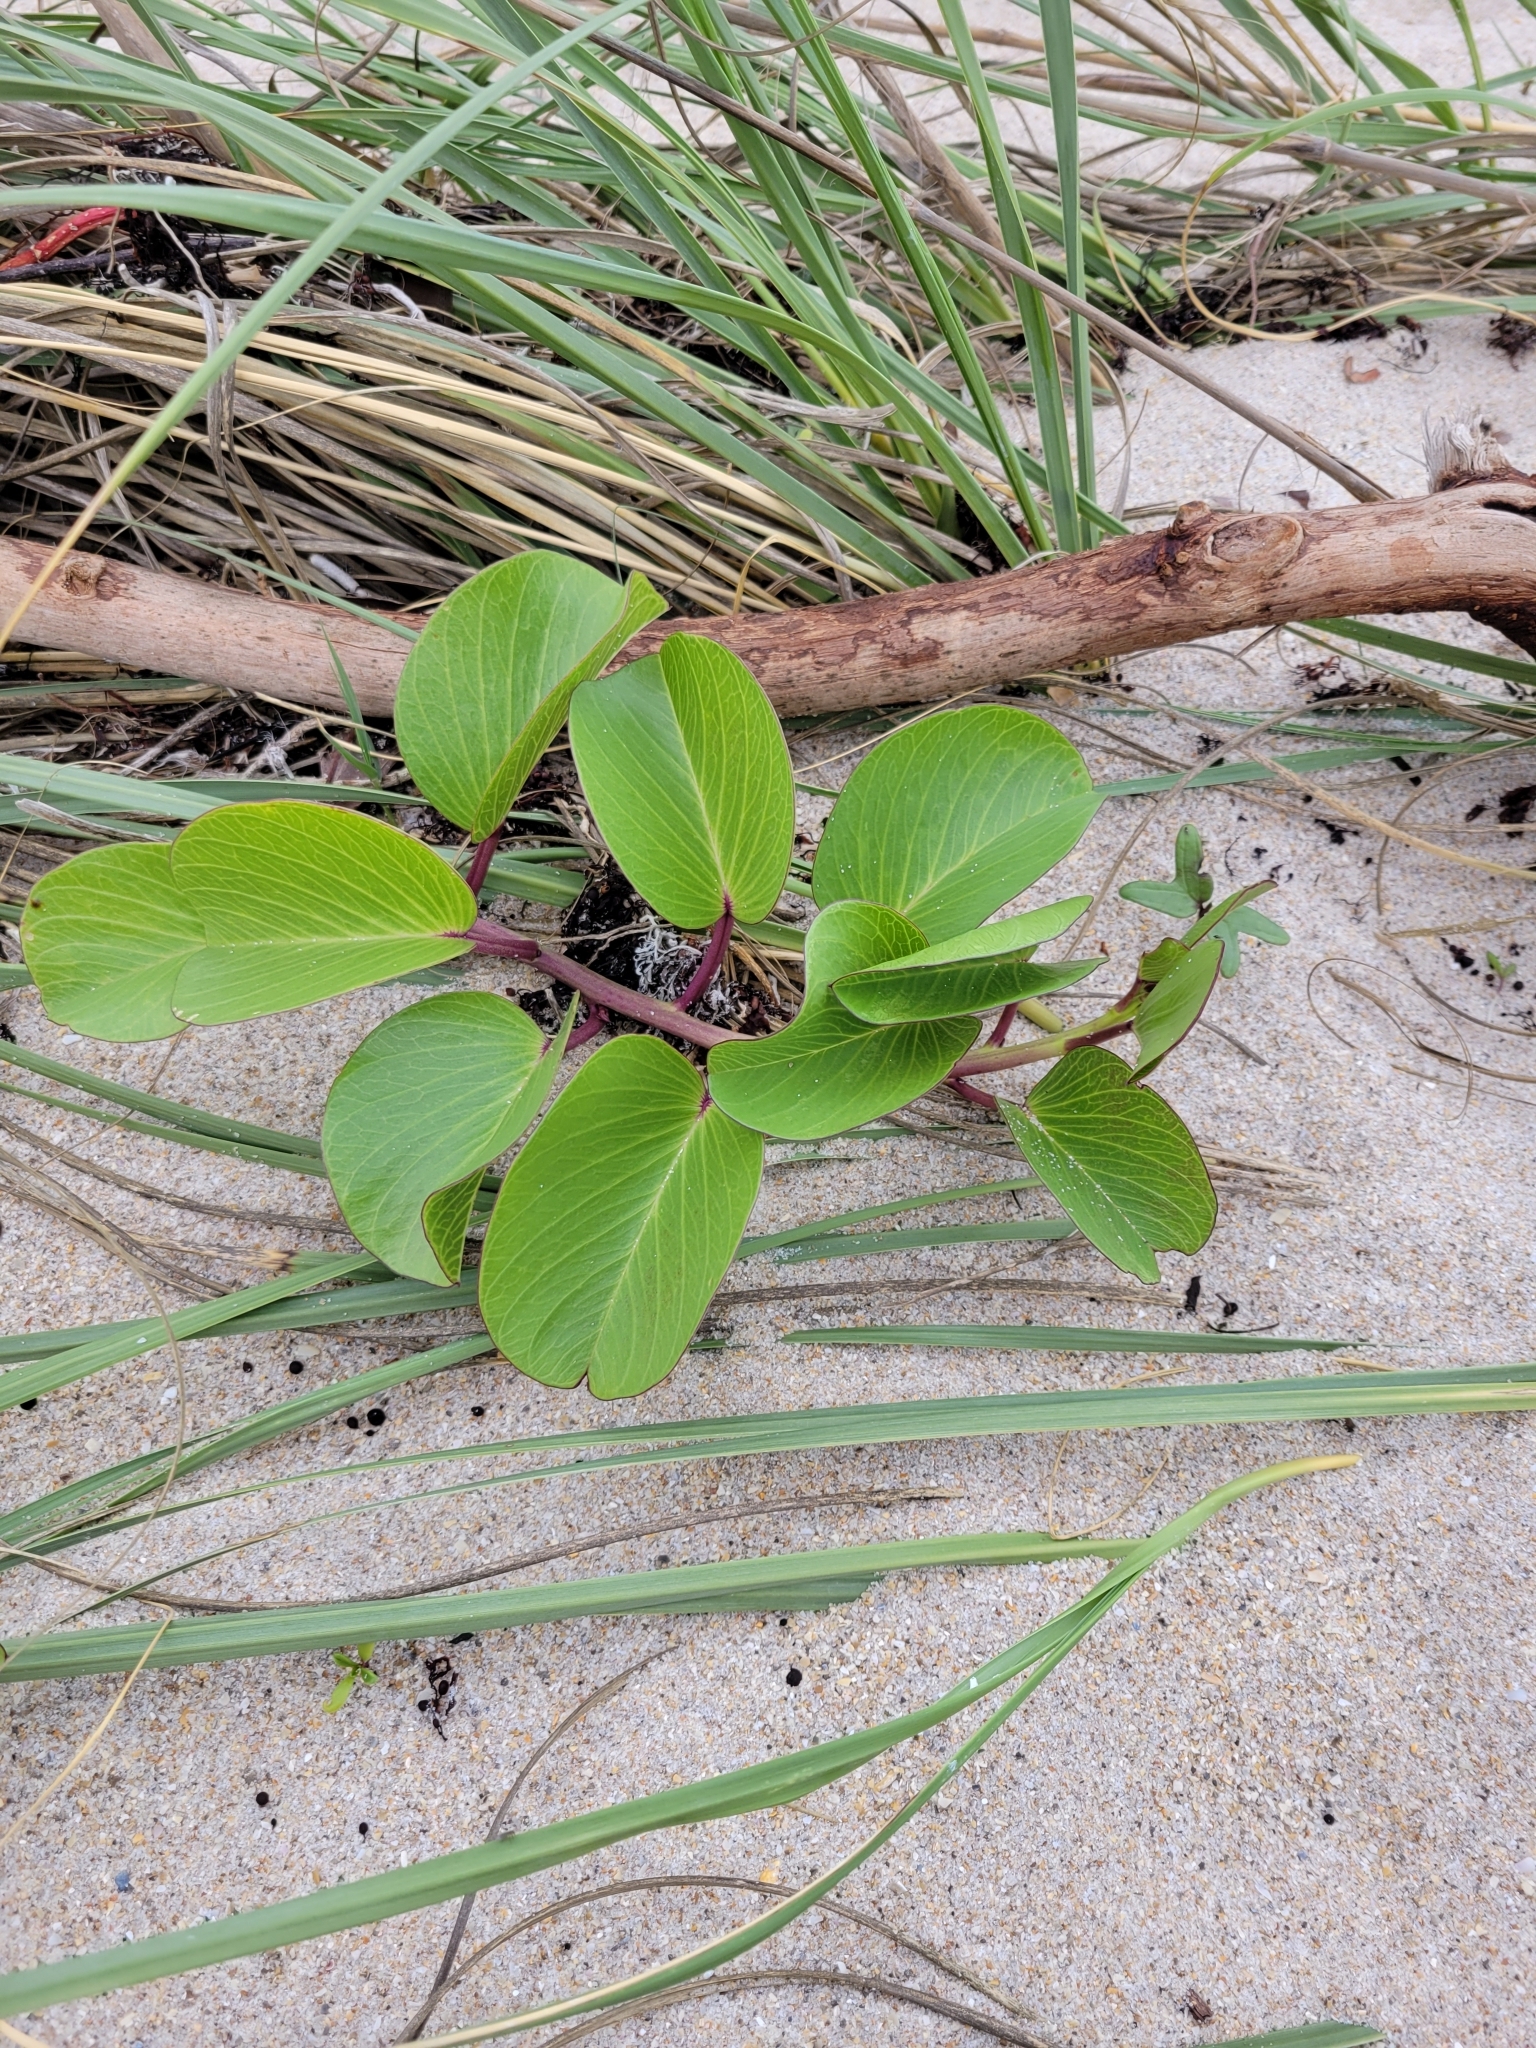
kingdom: Plantae
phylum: Tracheophyta
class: Magnoliopsida
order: Solanales
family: Convolvulaceae
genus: Ipomoea
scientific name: Ipomoea pes-caprae
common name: Beach morning glory
